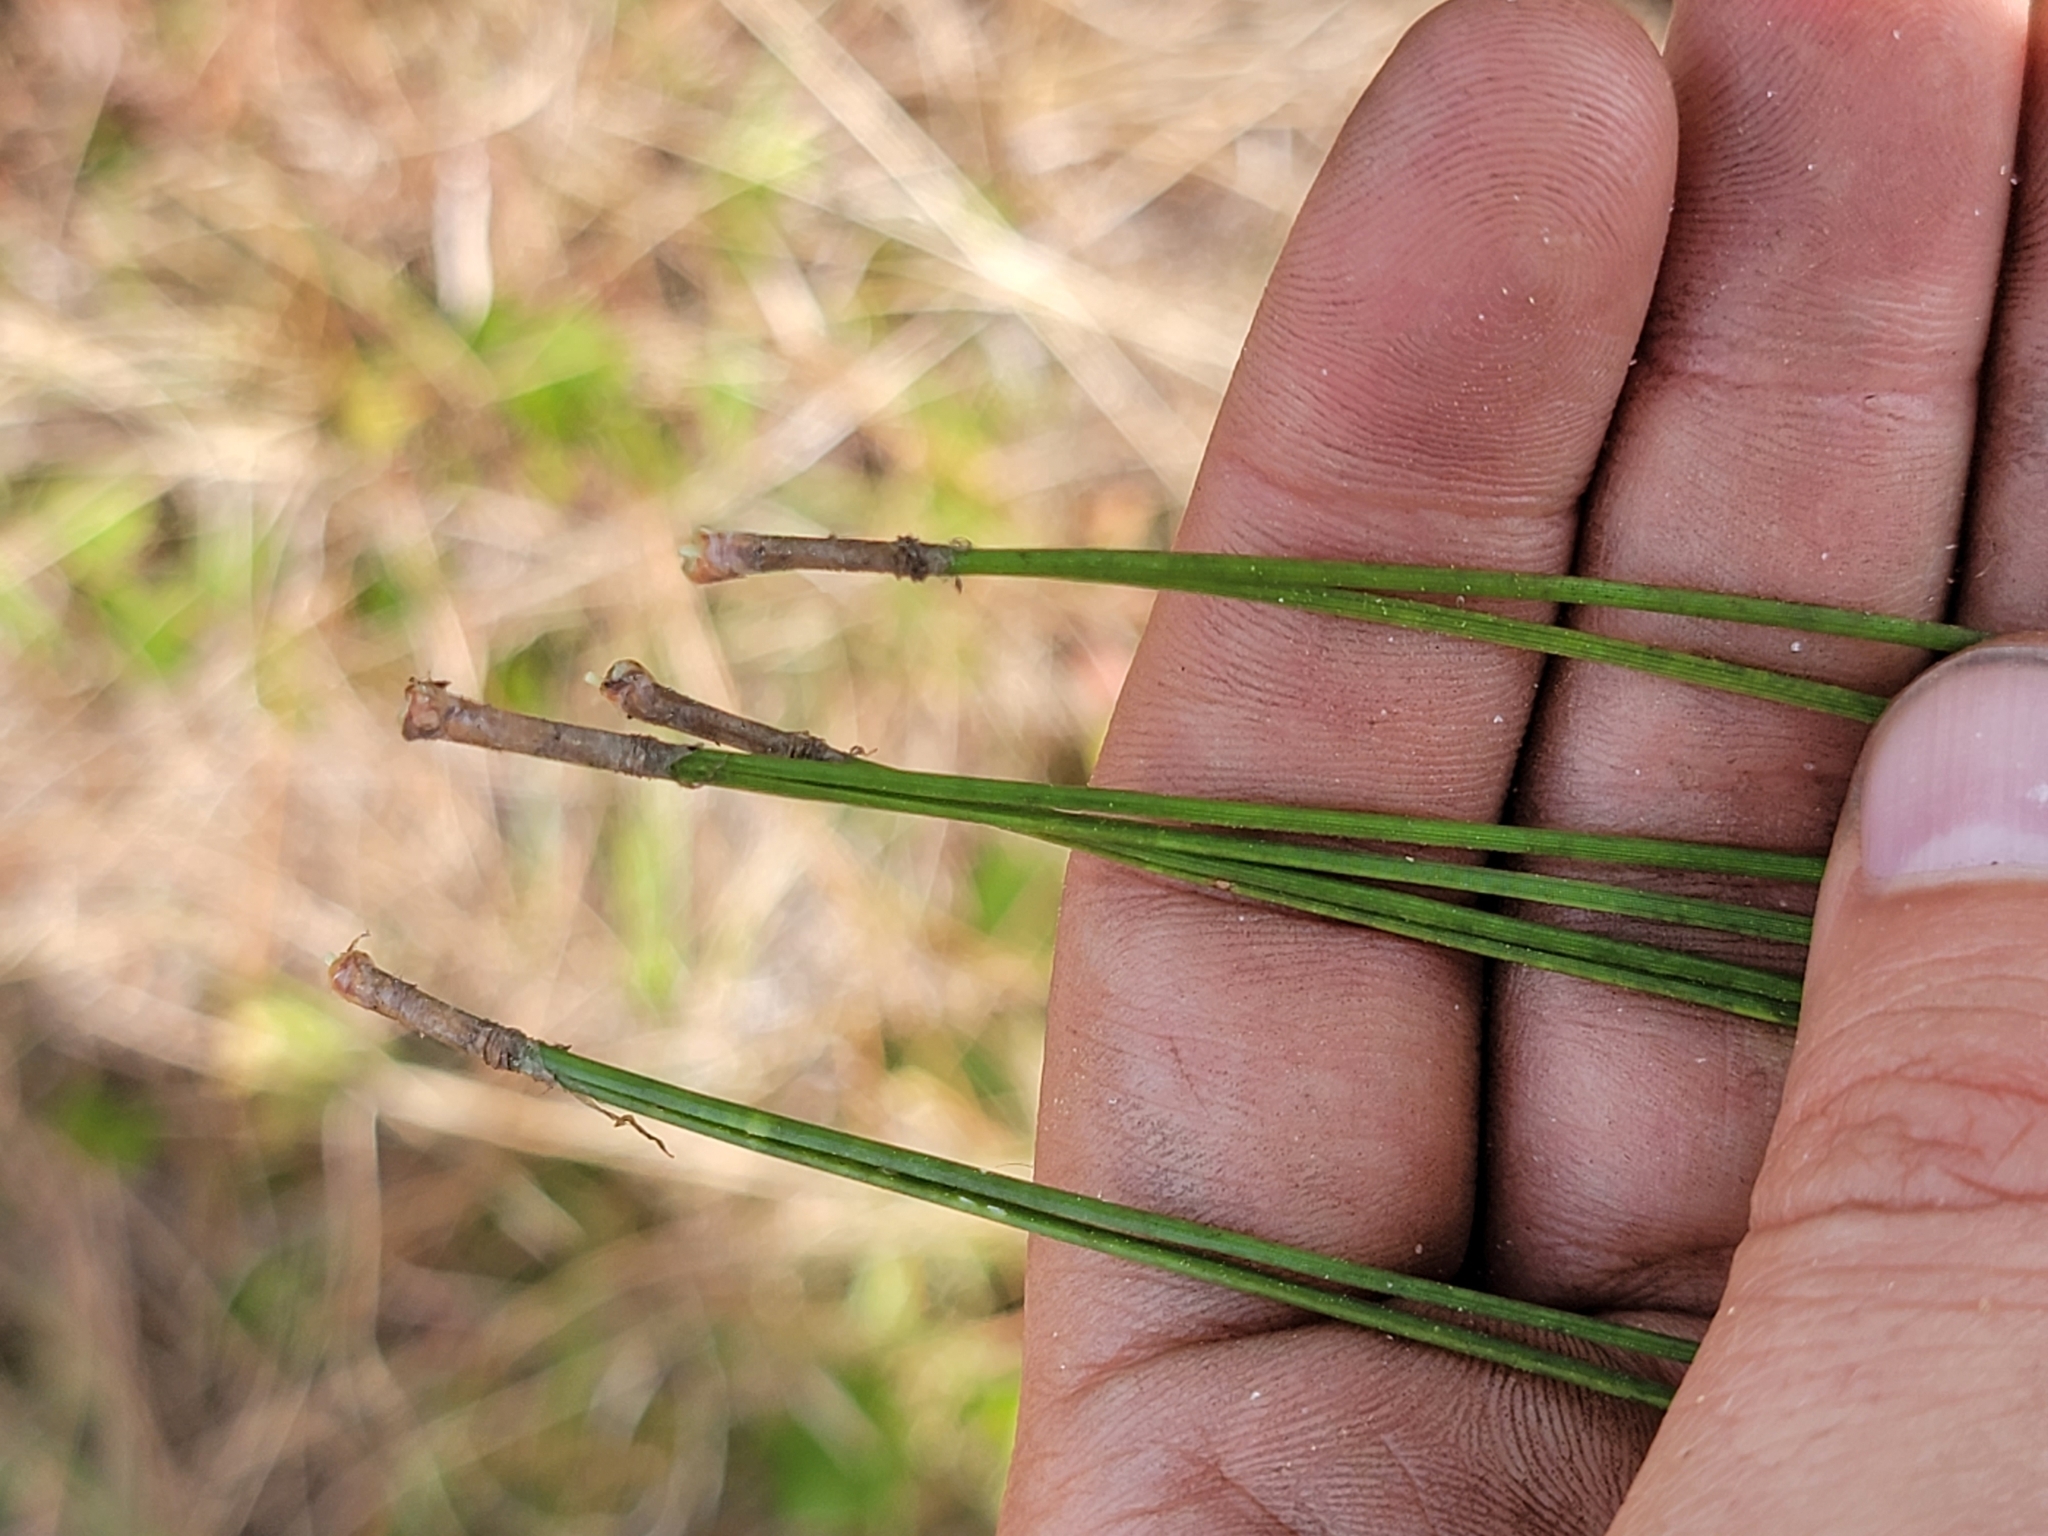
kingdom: Plantae
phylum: Tracheophyta
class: Pinopsida
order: Pinales
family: Pinaceae
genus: Pinus
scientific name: Pinus elliottii
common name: Slash pine
